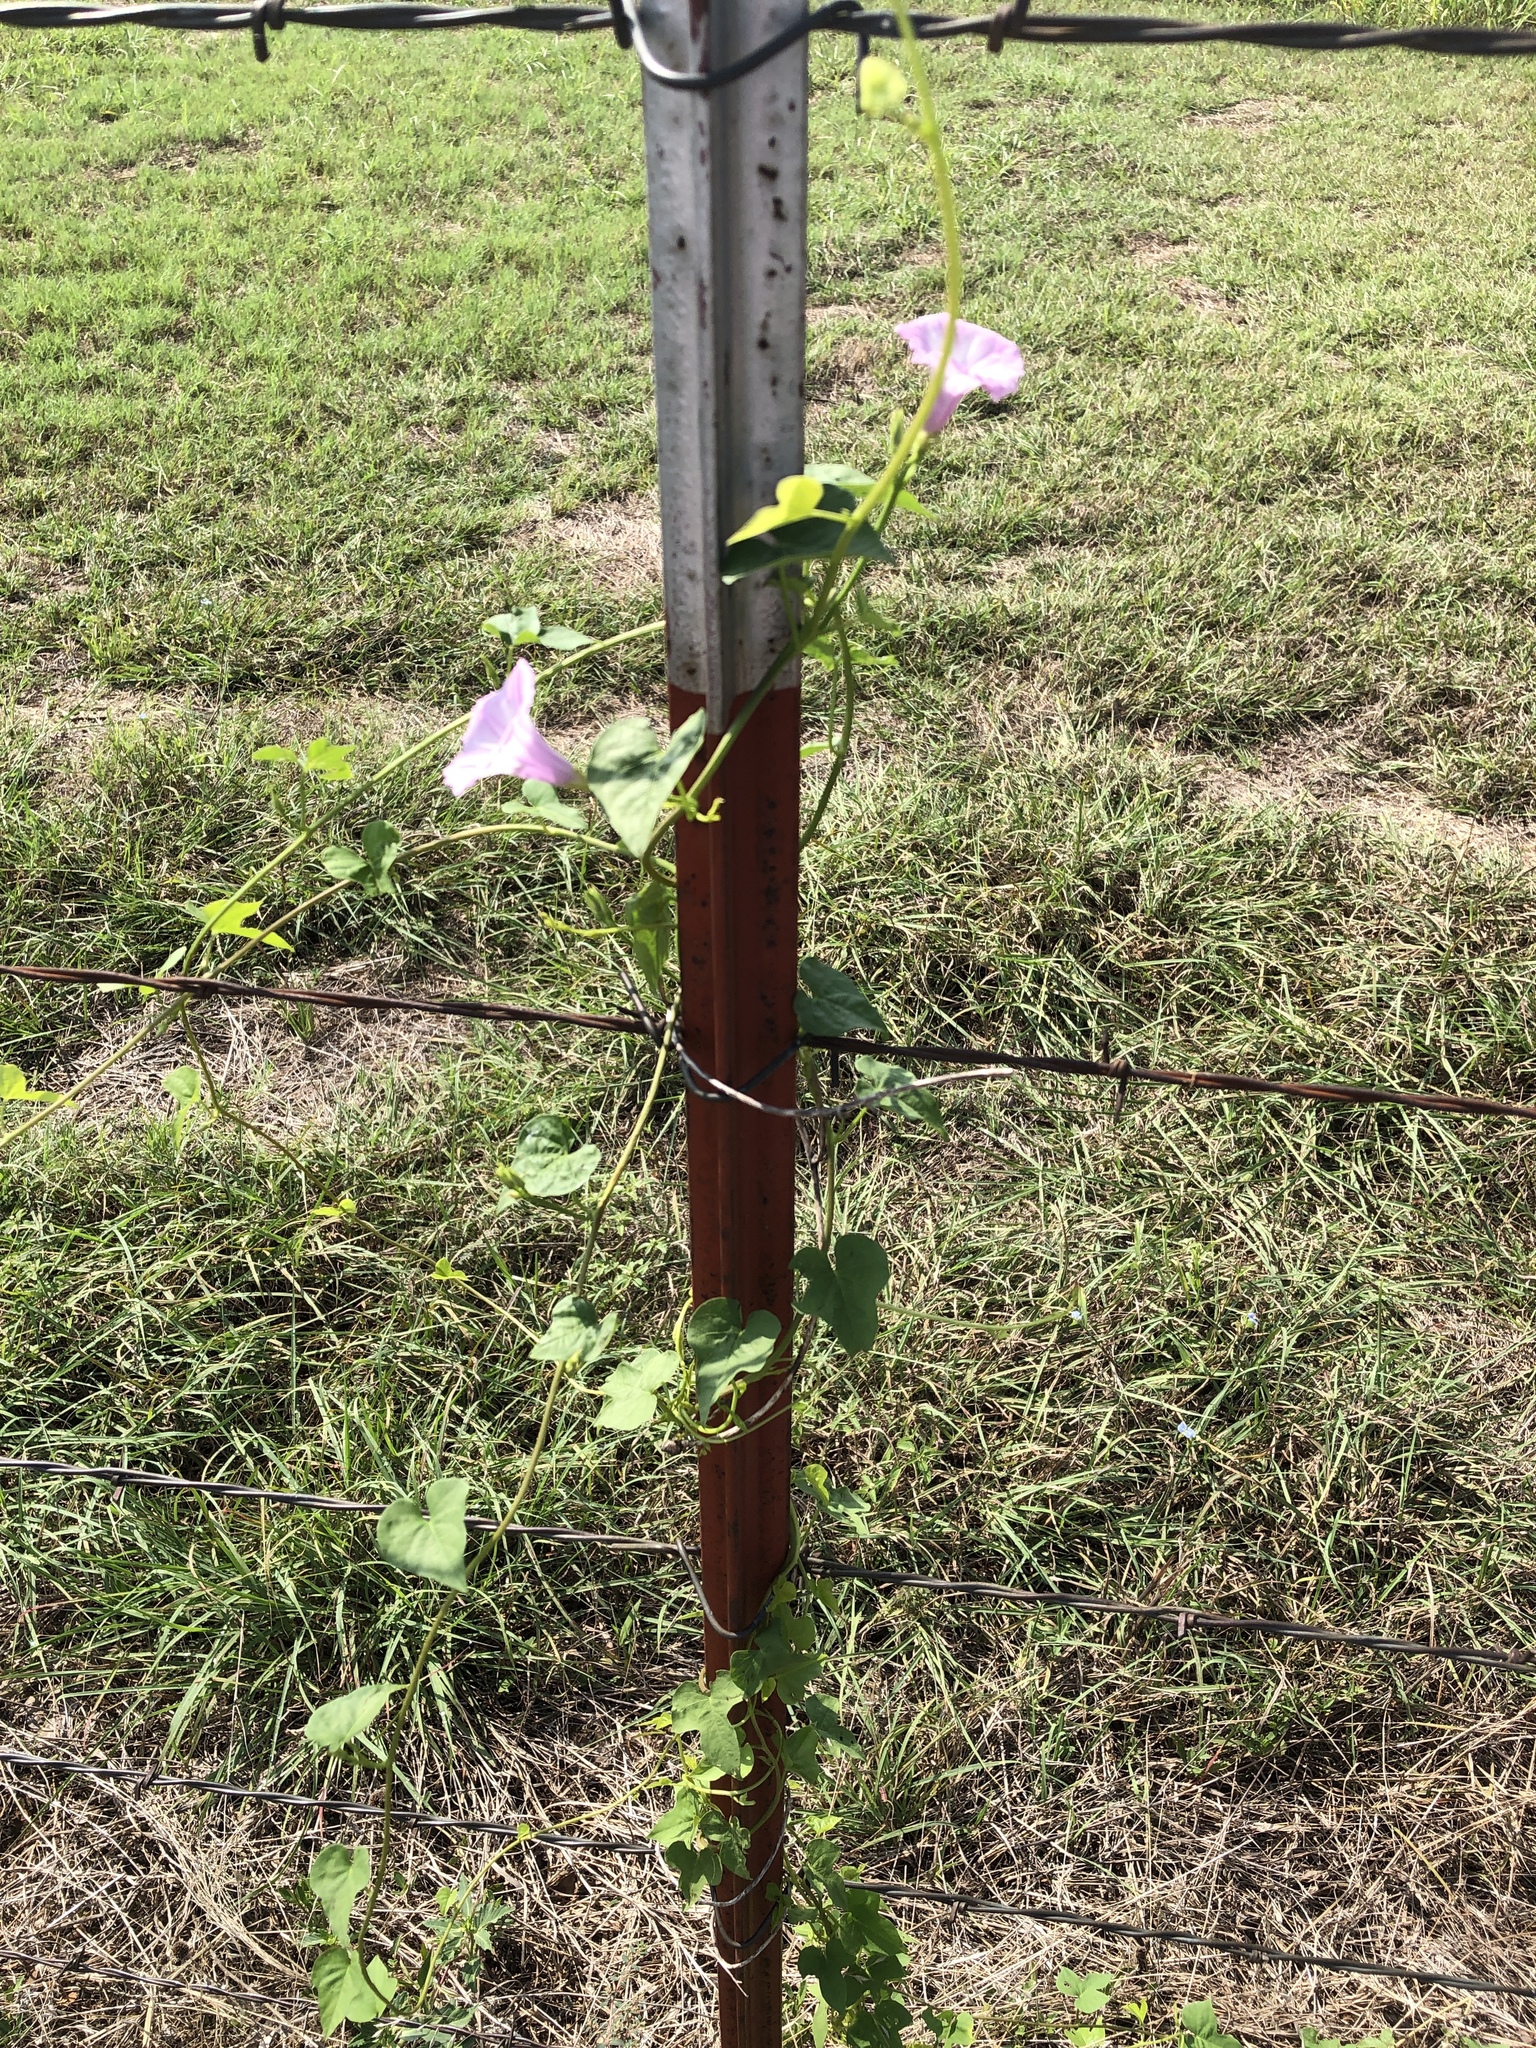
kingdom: Plantae
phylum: Tracheophyta
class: Magnoliopsida
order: Solanales
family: Convolvulaceae
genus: Ipomoea
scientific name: Ipomoea cordatotriloba
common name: Cotton morning glory
